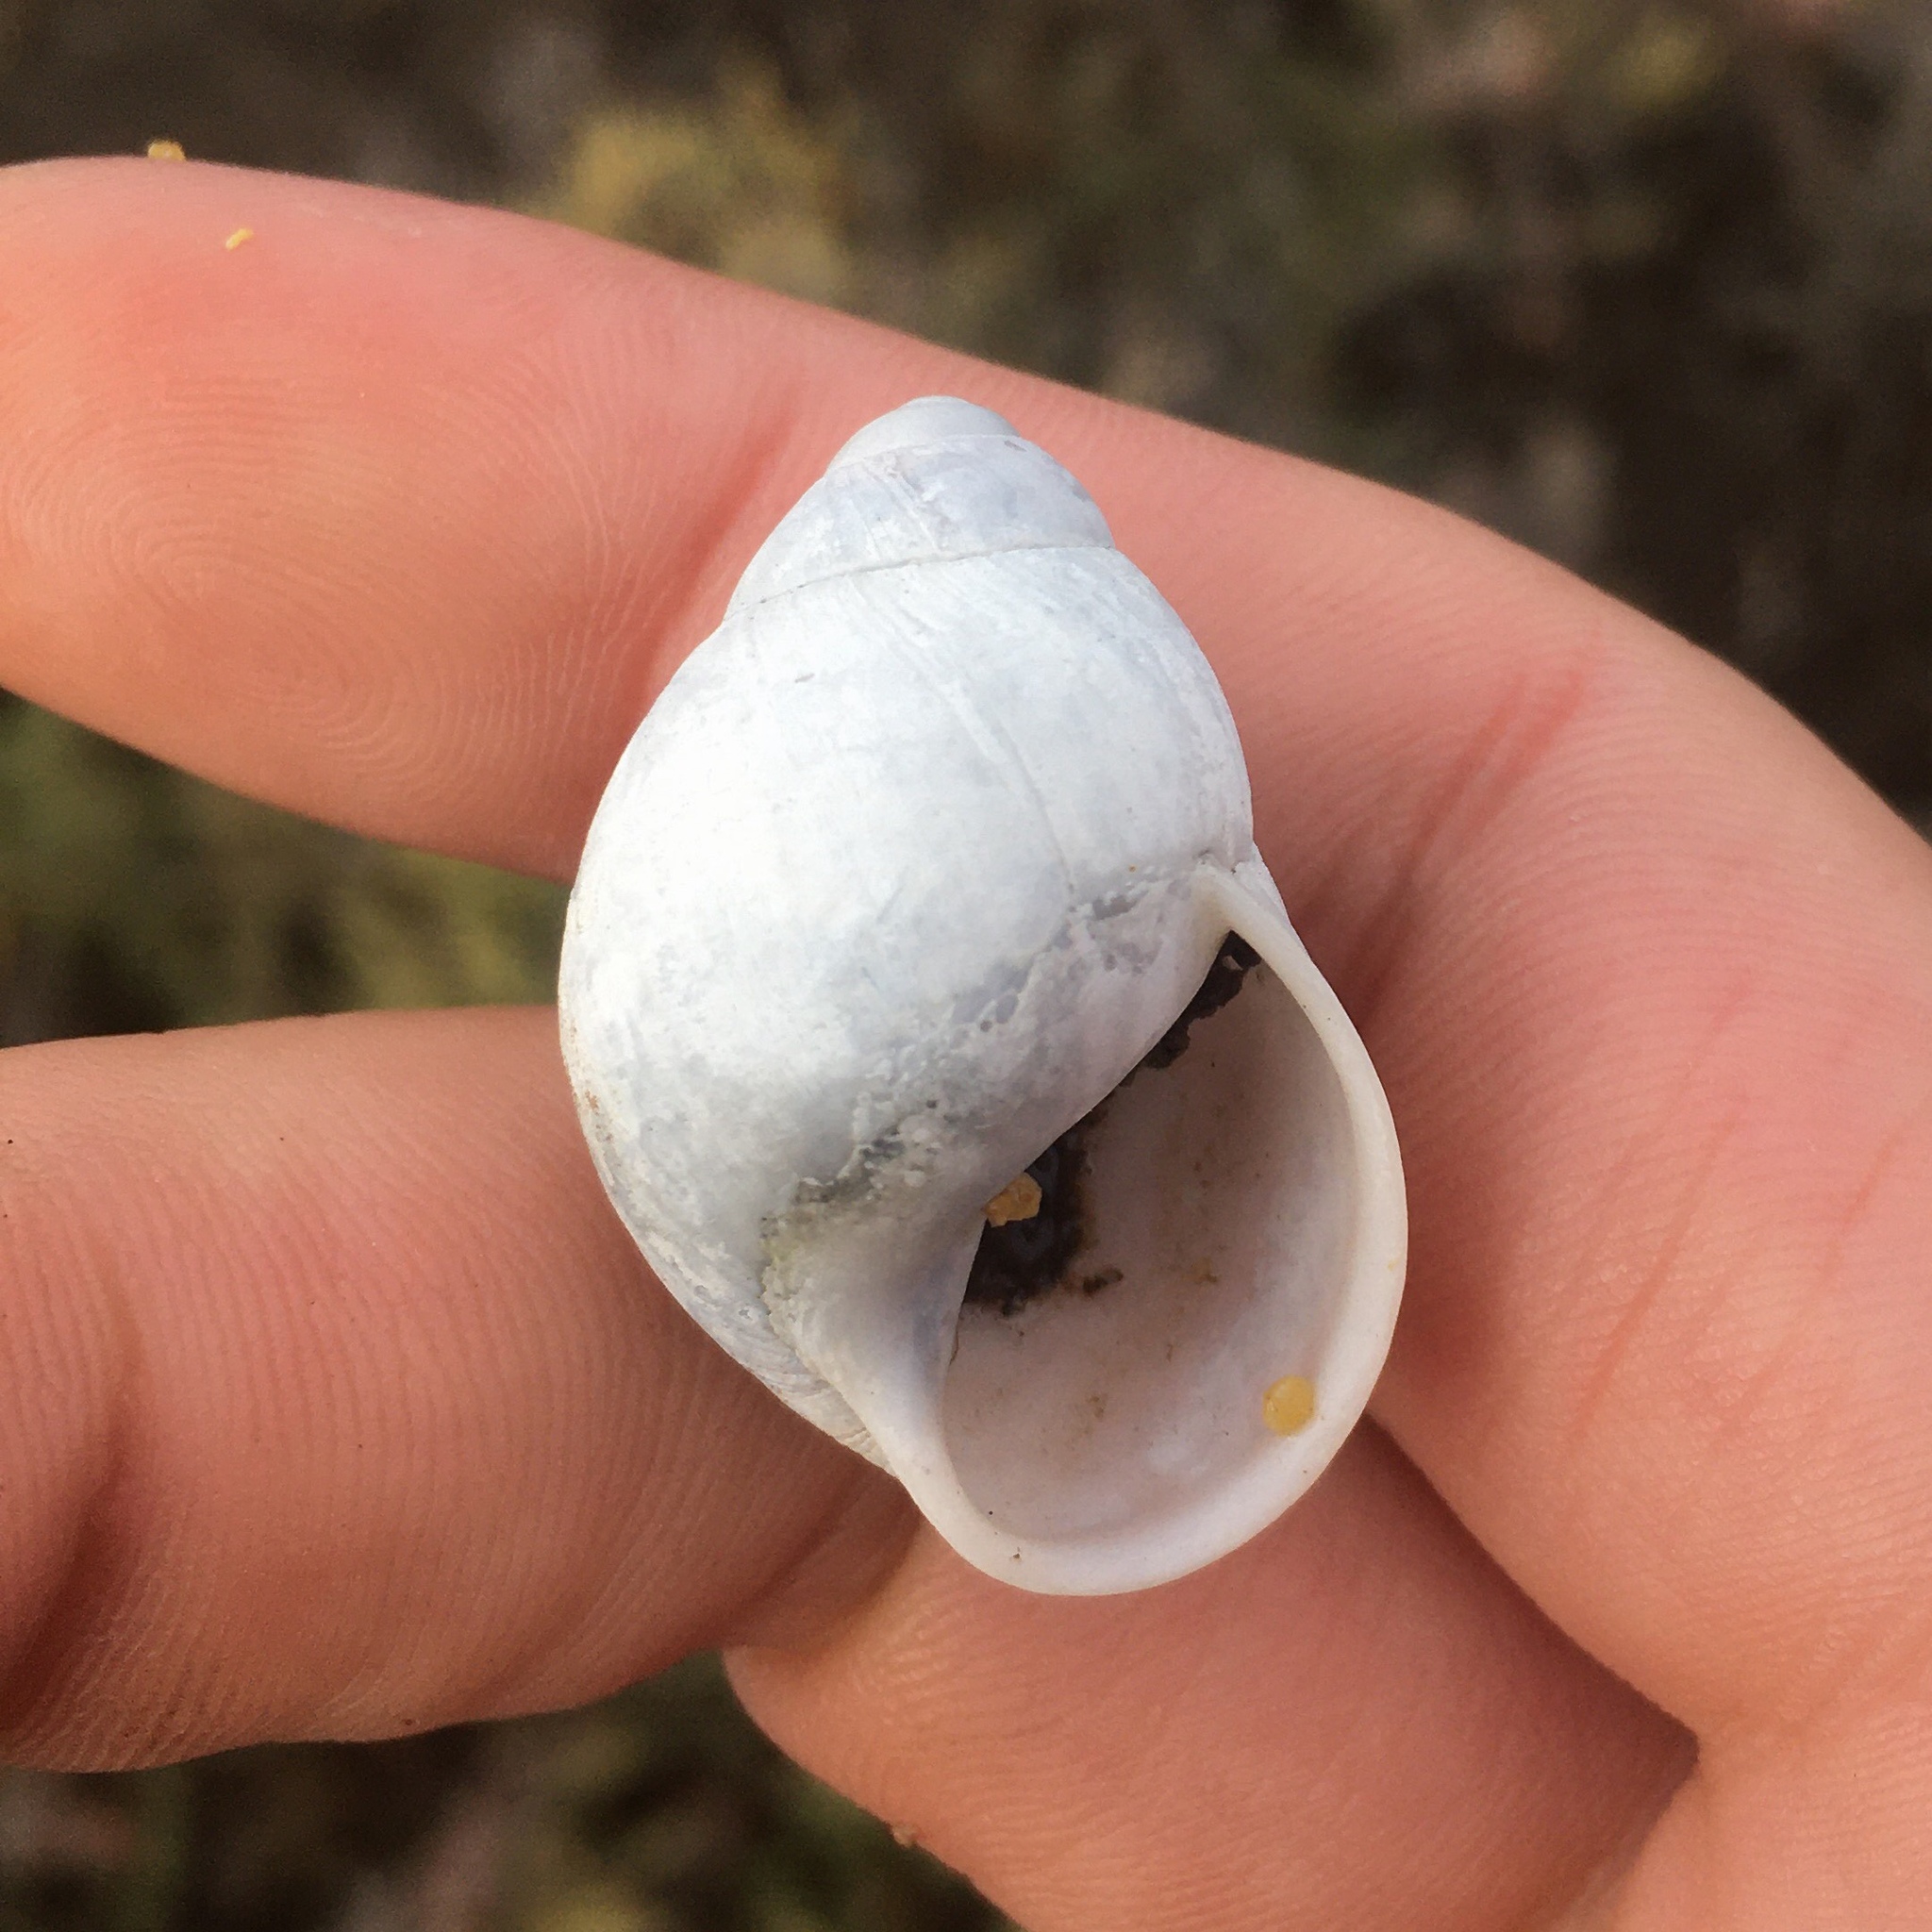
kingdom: Animalia
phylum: Mollusca
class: Gastropoda
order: Stylommatophora
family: Strophocheilidae
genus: Austroborus
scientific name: Austroborus dorbignyi
